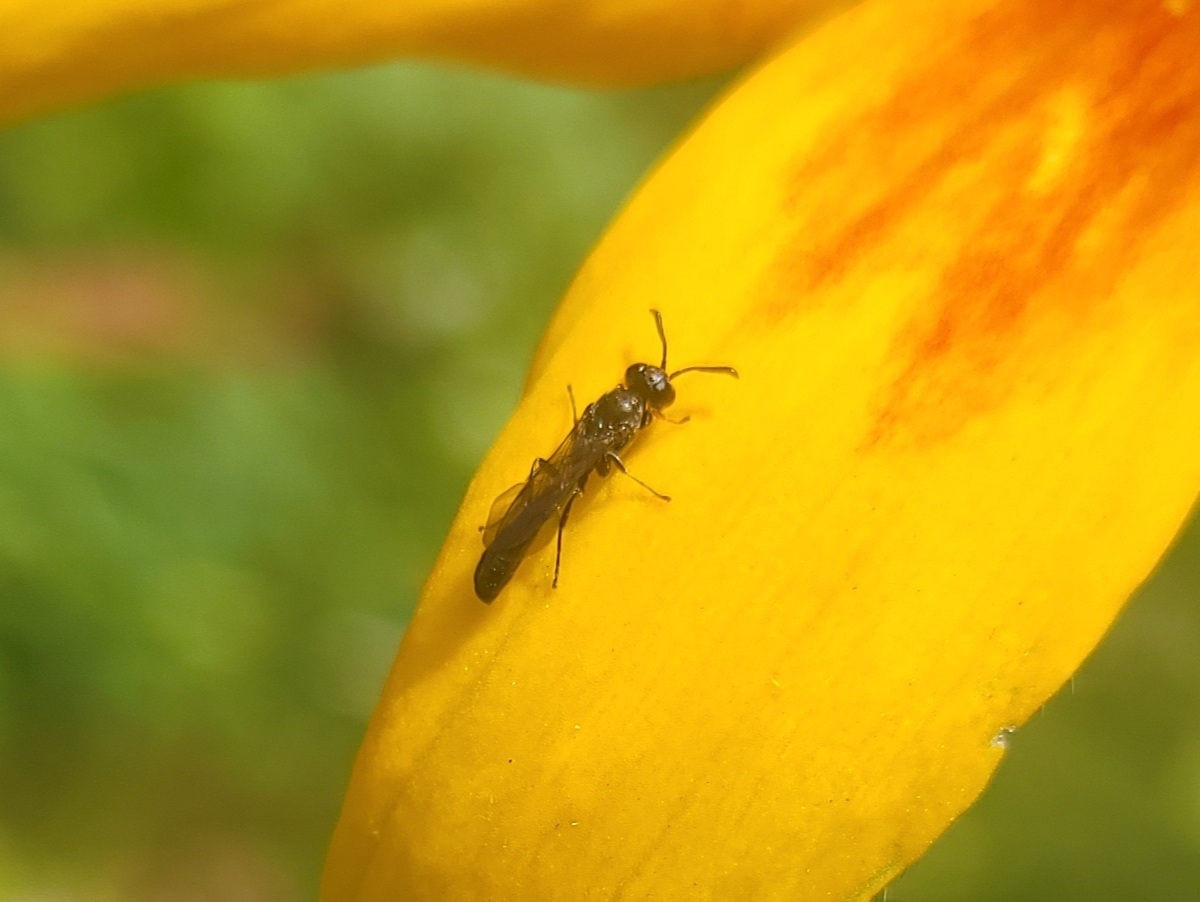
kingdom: Animalia
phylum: Arthropoda
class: Insecta
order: Hymenoptera
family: Crabronidae
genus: Trypoxylon
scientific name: Trypoxylon
